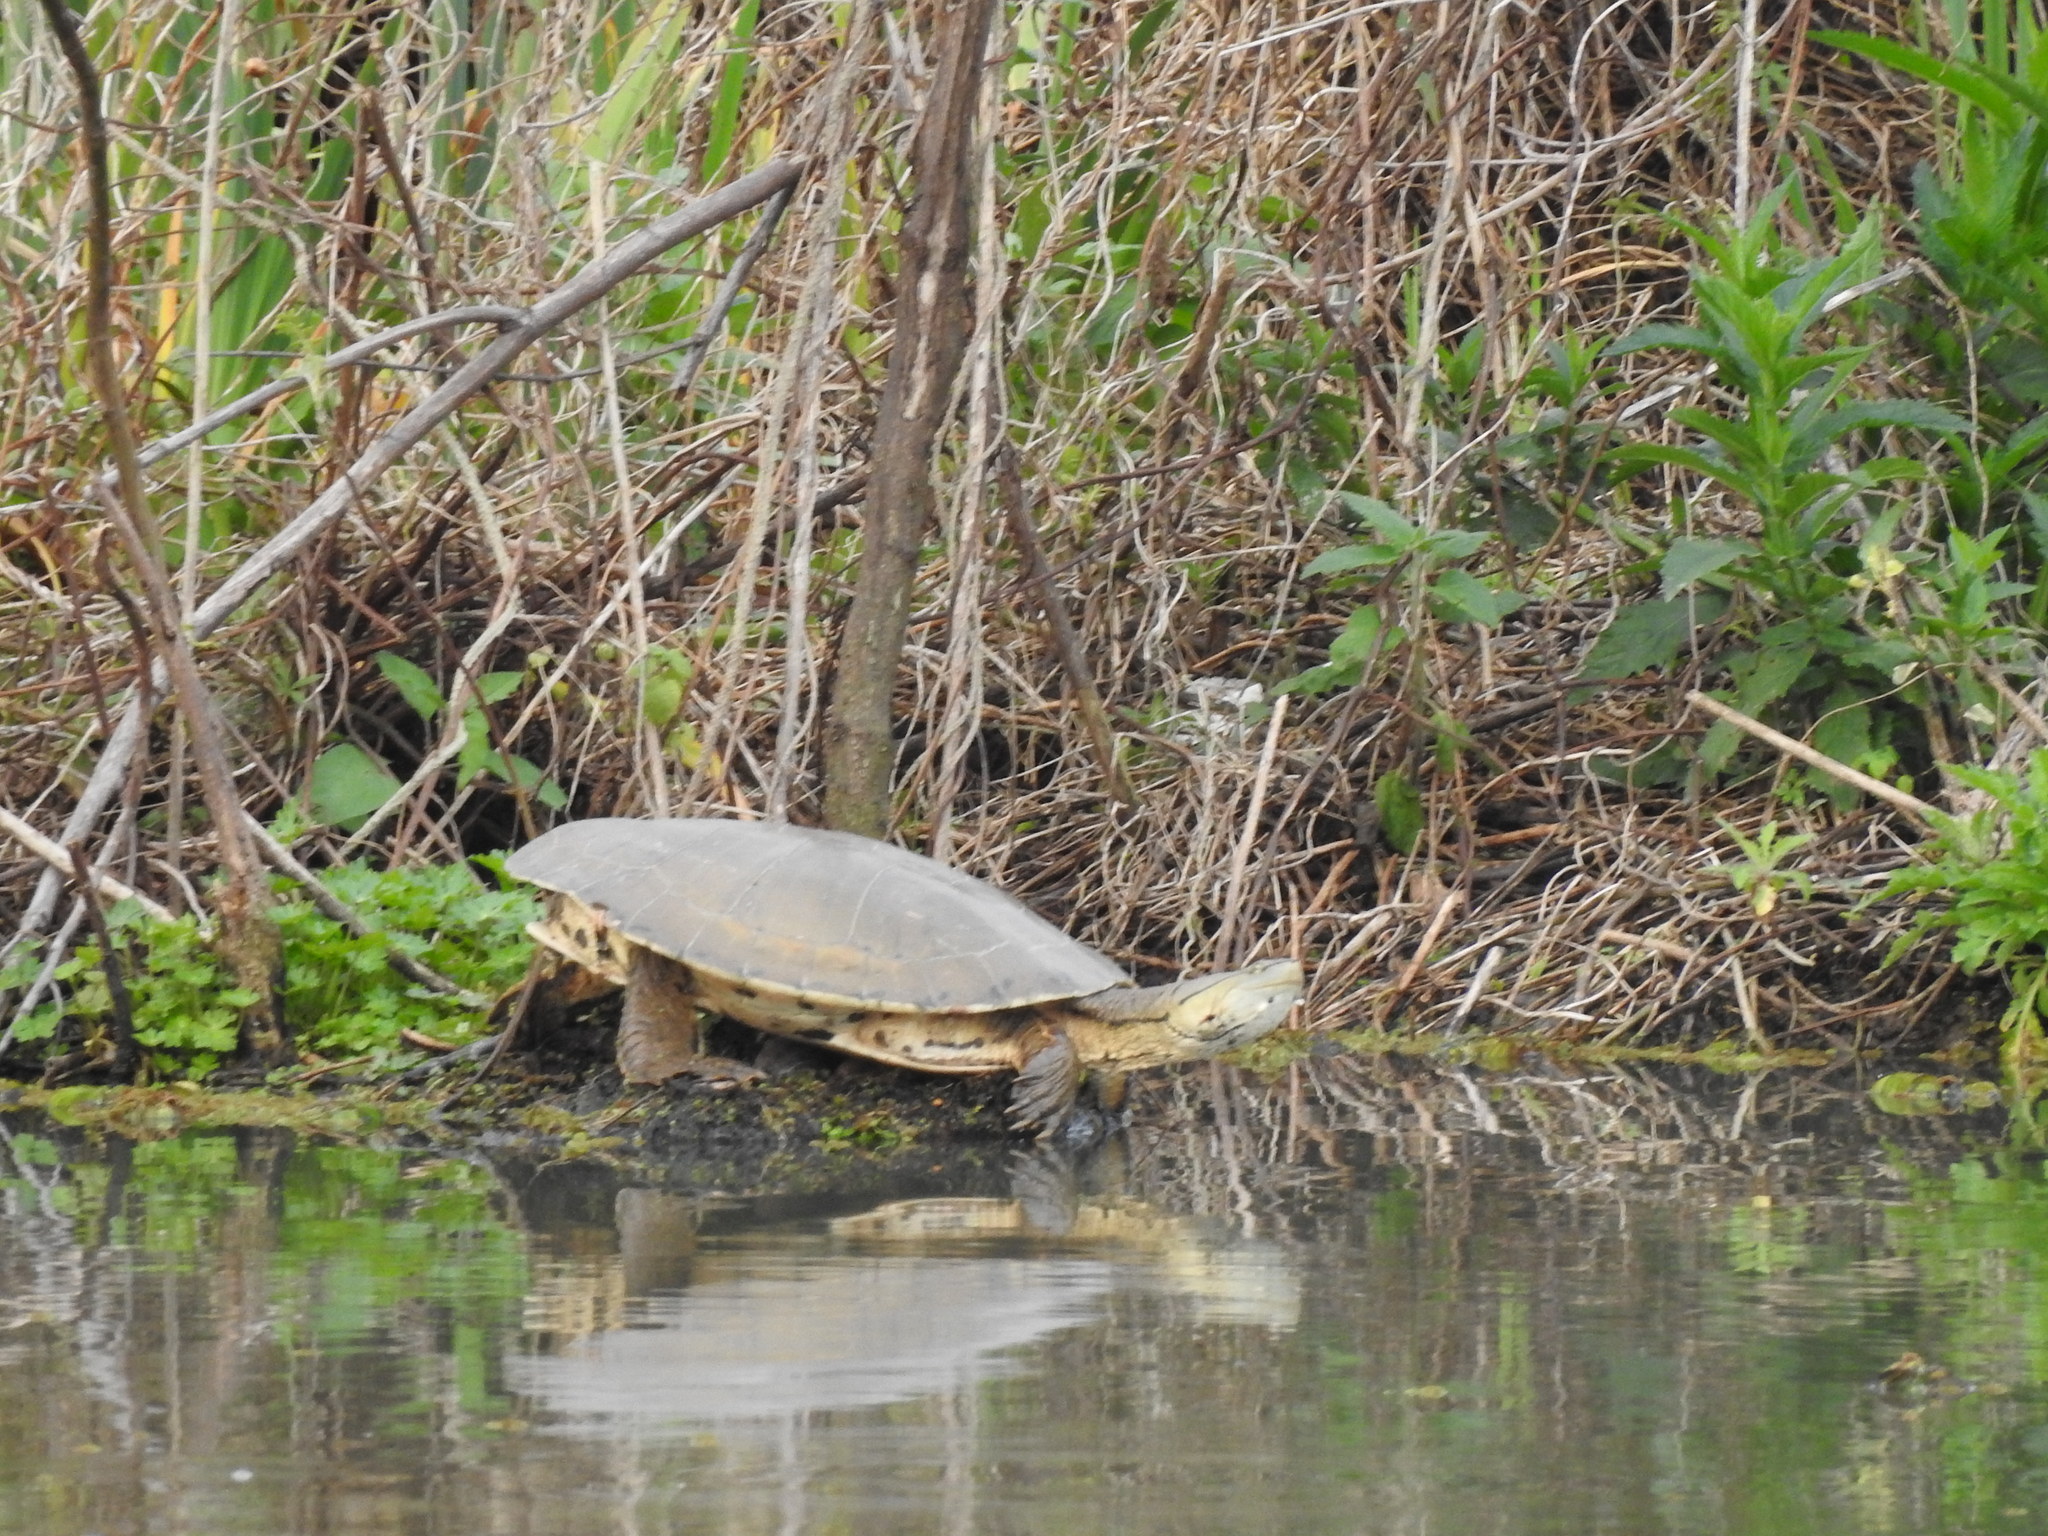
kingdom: Animalia
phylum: Chordata
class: Testudines
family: Chelidae
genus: Phrynops
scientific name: Phrynops hilarii
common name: Side-necked turtle of saint hillaire
